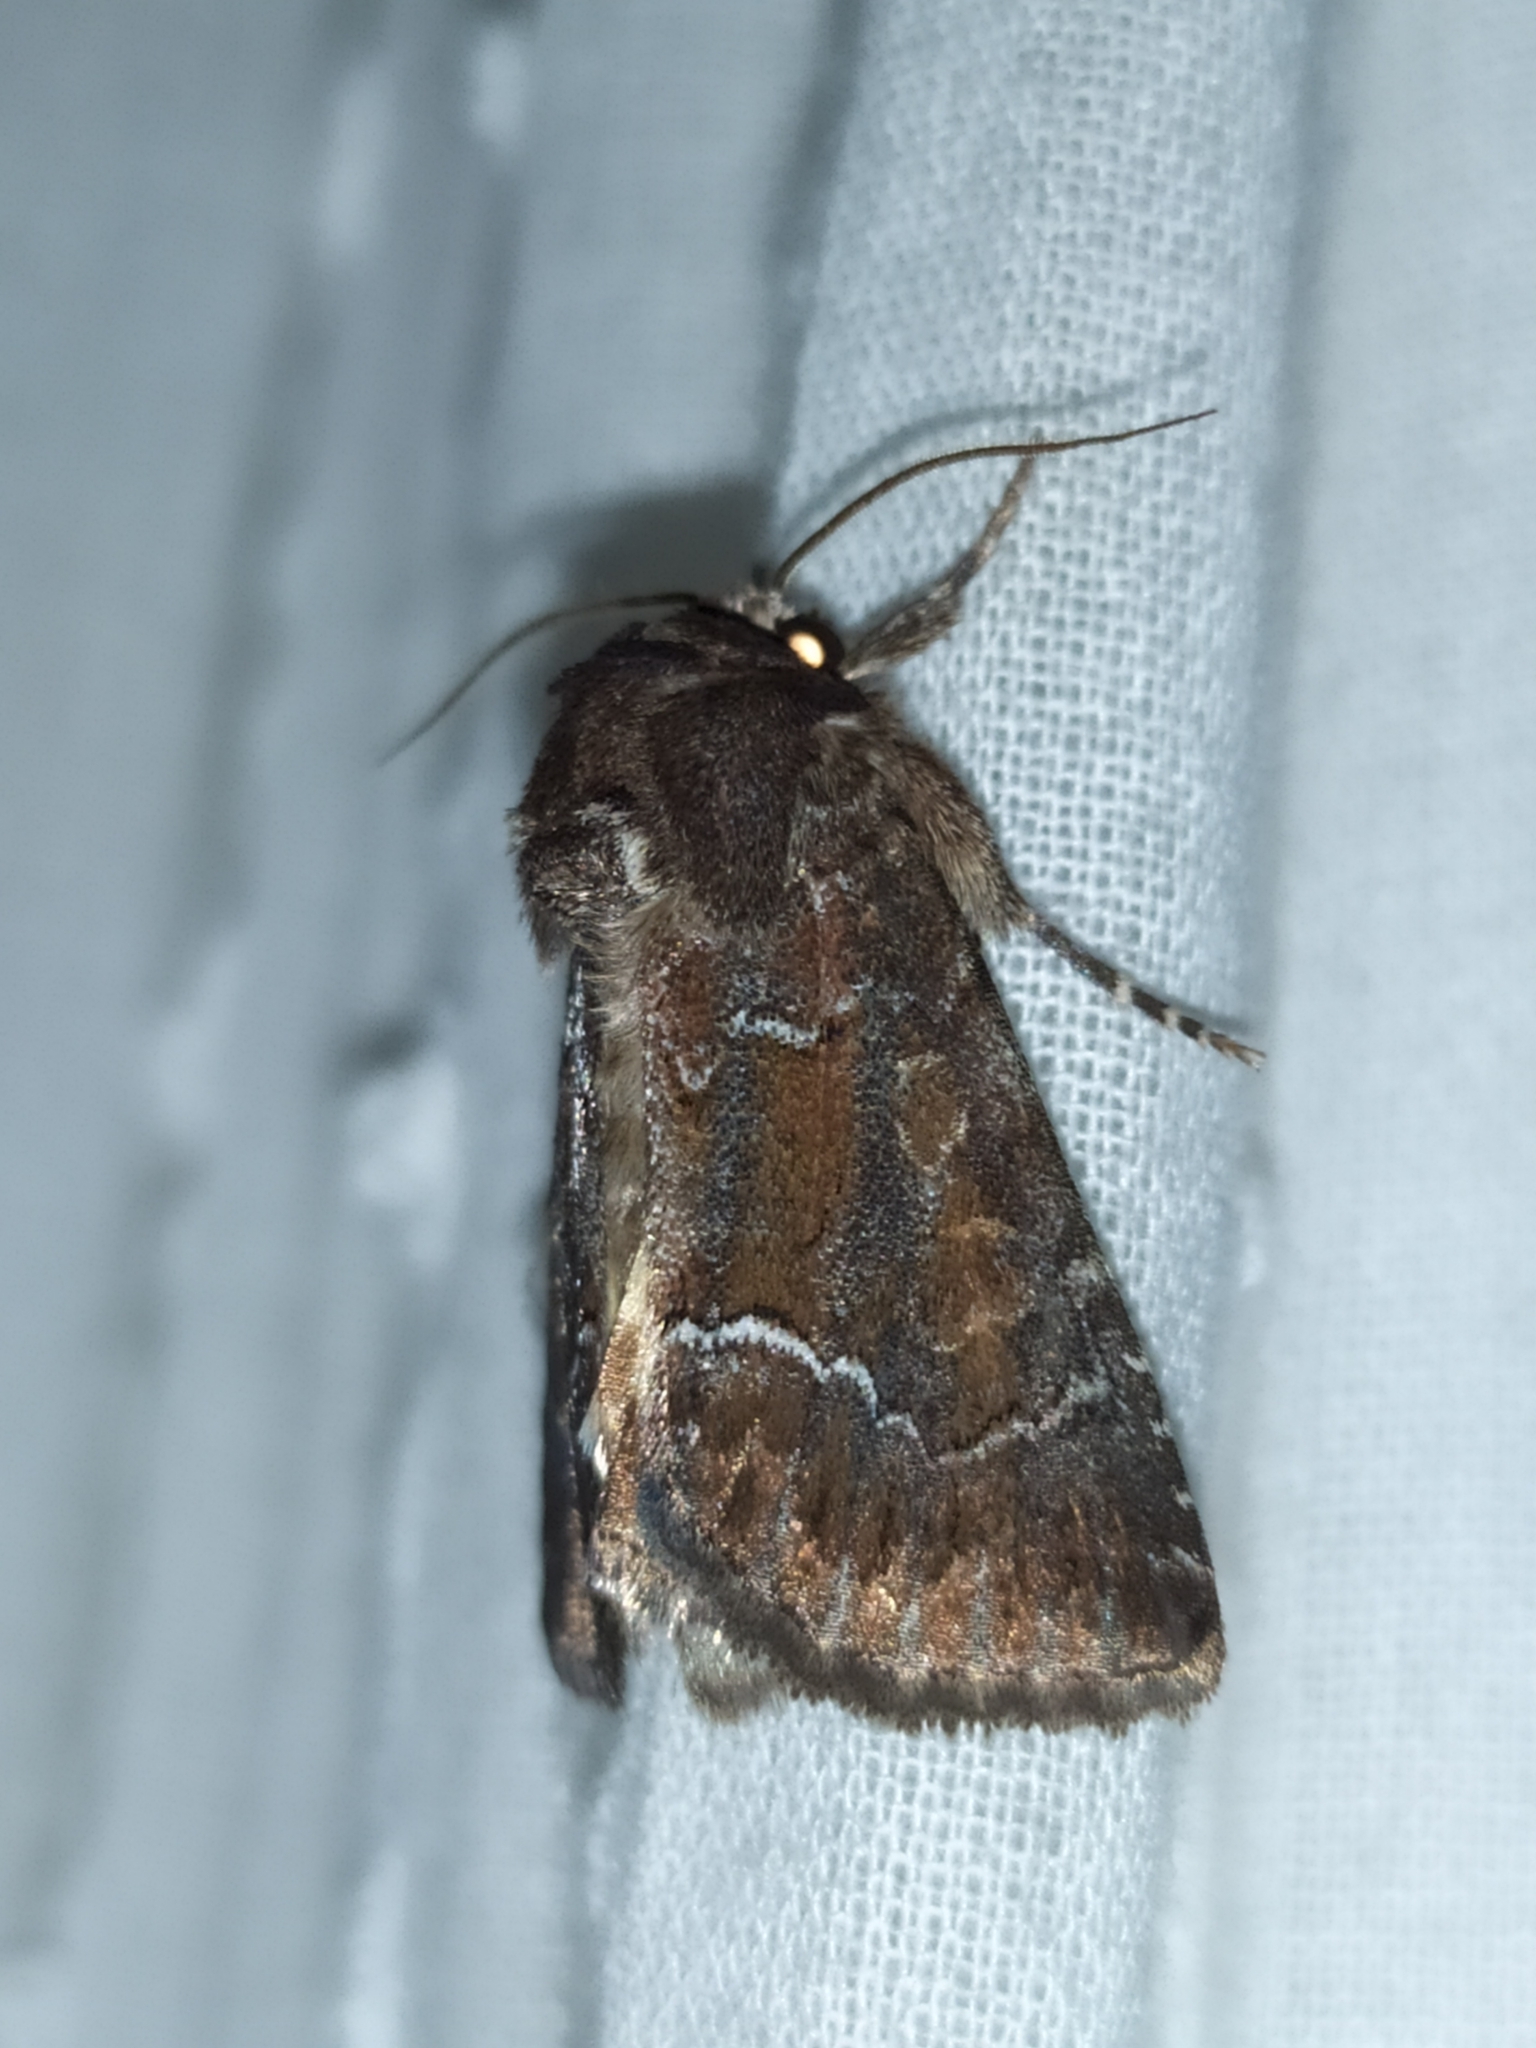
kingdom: Animalia
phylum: Arthropoda
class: Insecta
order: Lepidoptera
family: Noctuidae
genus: Thalpophila
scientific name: Thalpophila matura
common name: Straw underwing
